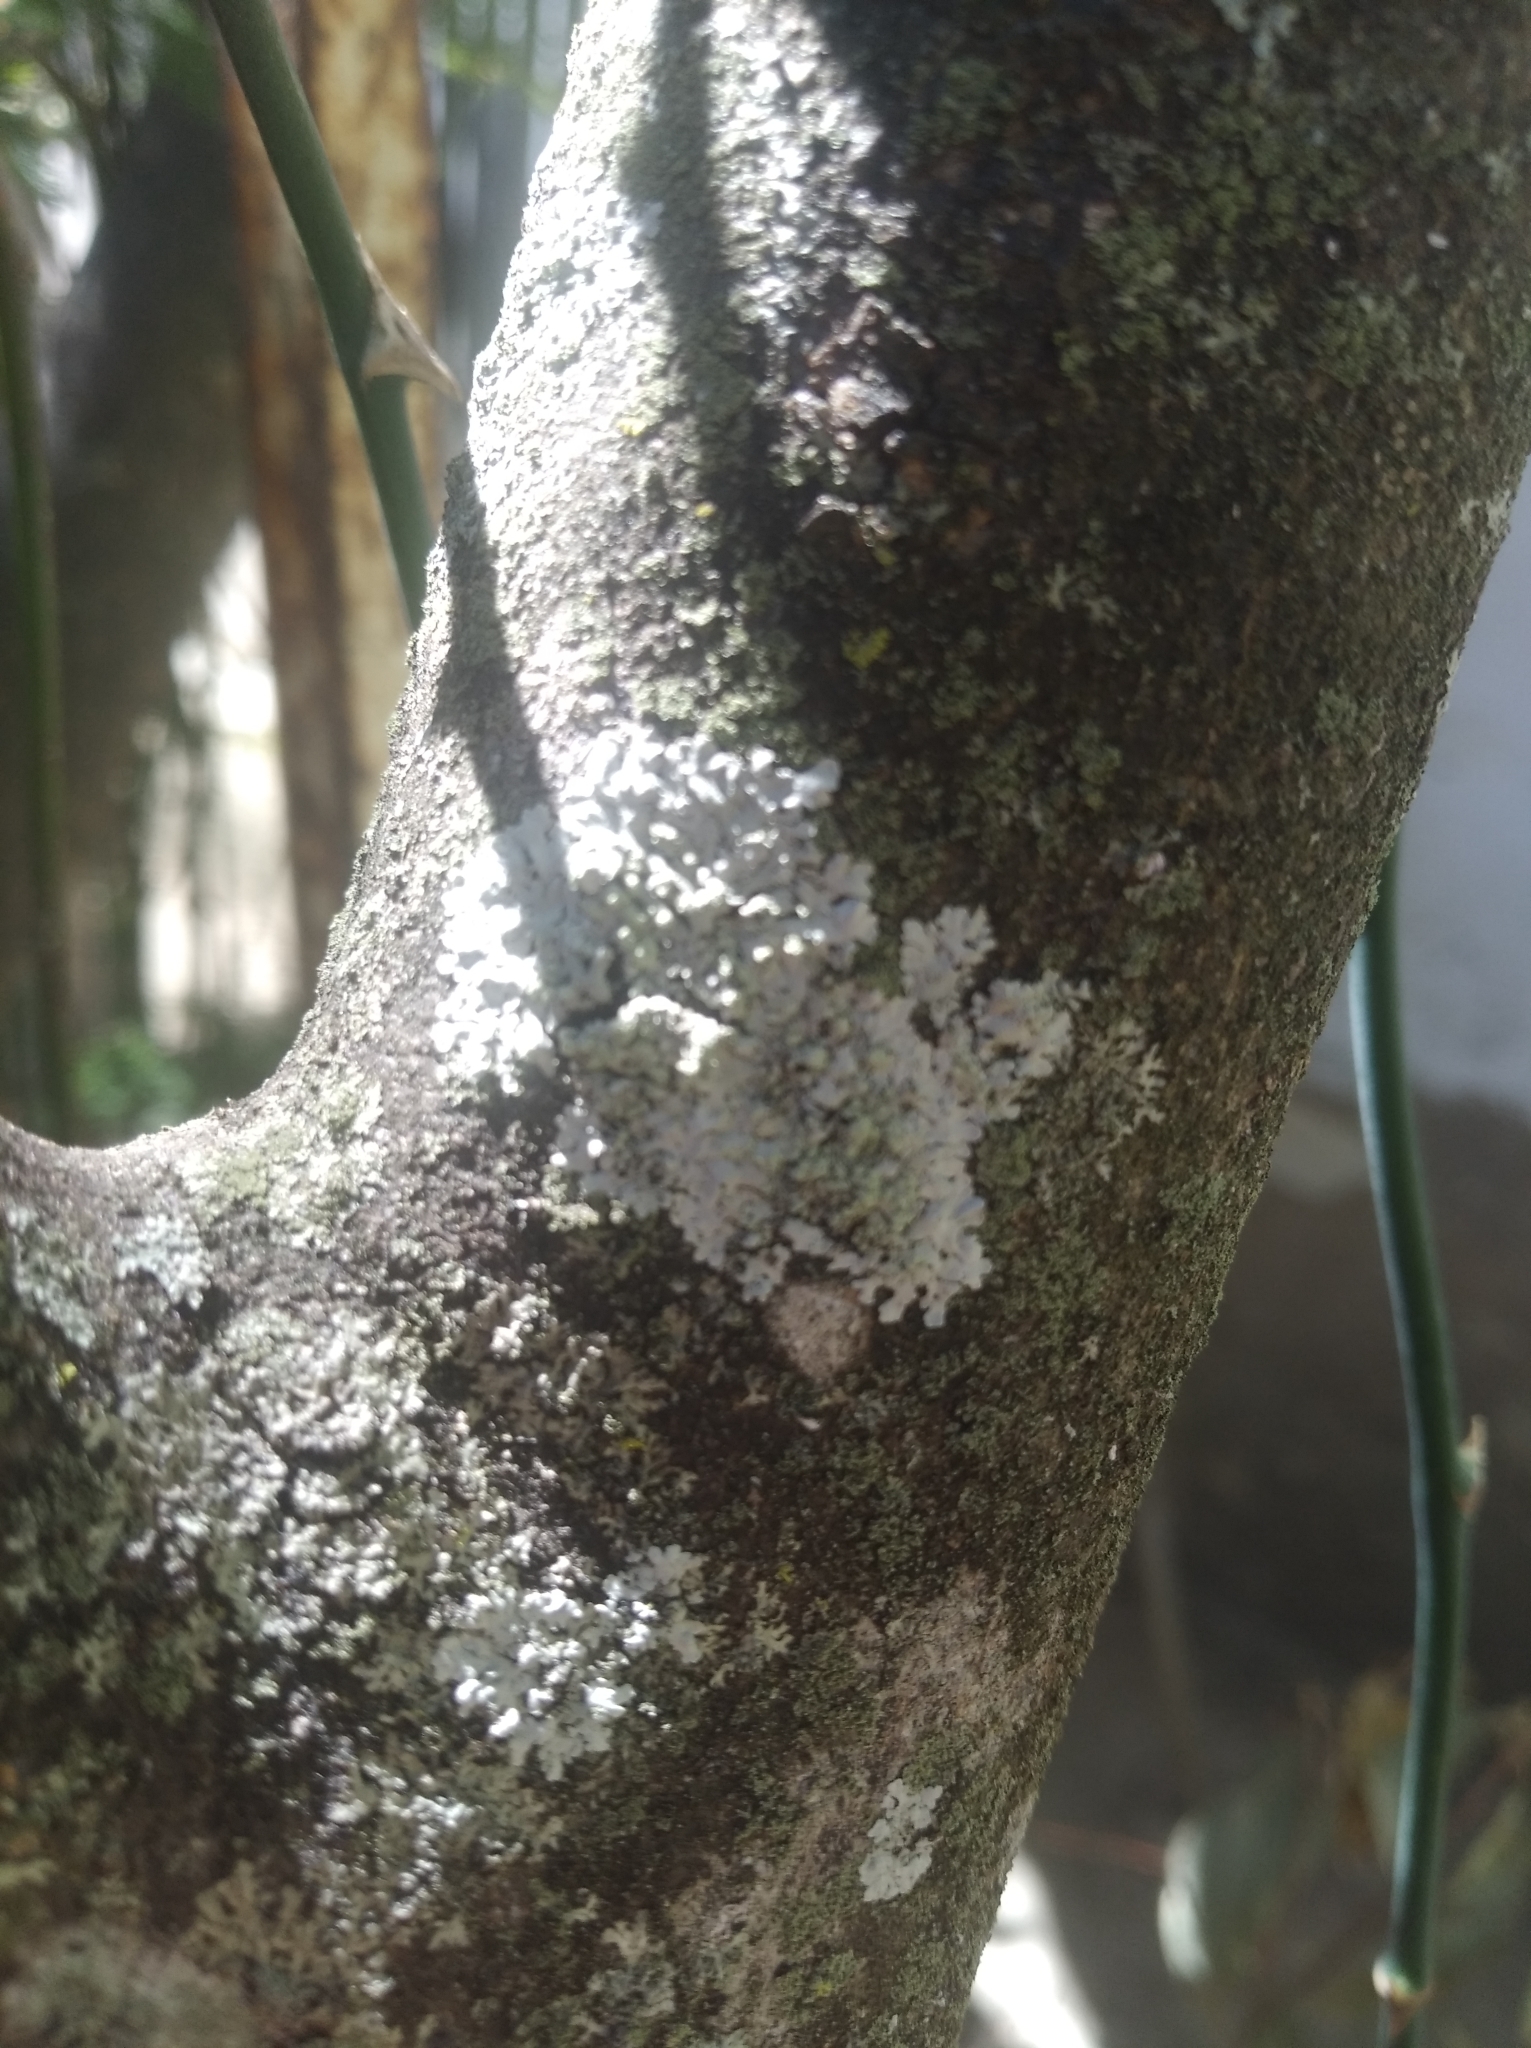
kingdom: Fungi
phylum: Ascomycota
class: Lecanoromycetes
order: Lecanorales
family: Parmeliaceae
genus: Myelochroa
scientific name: Myelochroa aurulenta
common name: Powdery axil-bristle lichen
